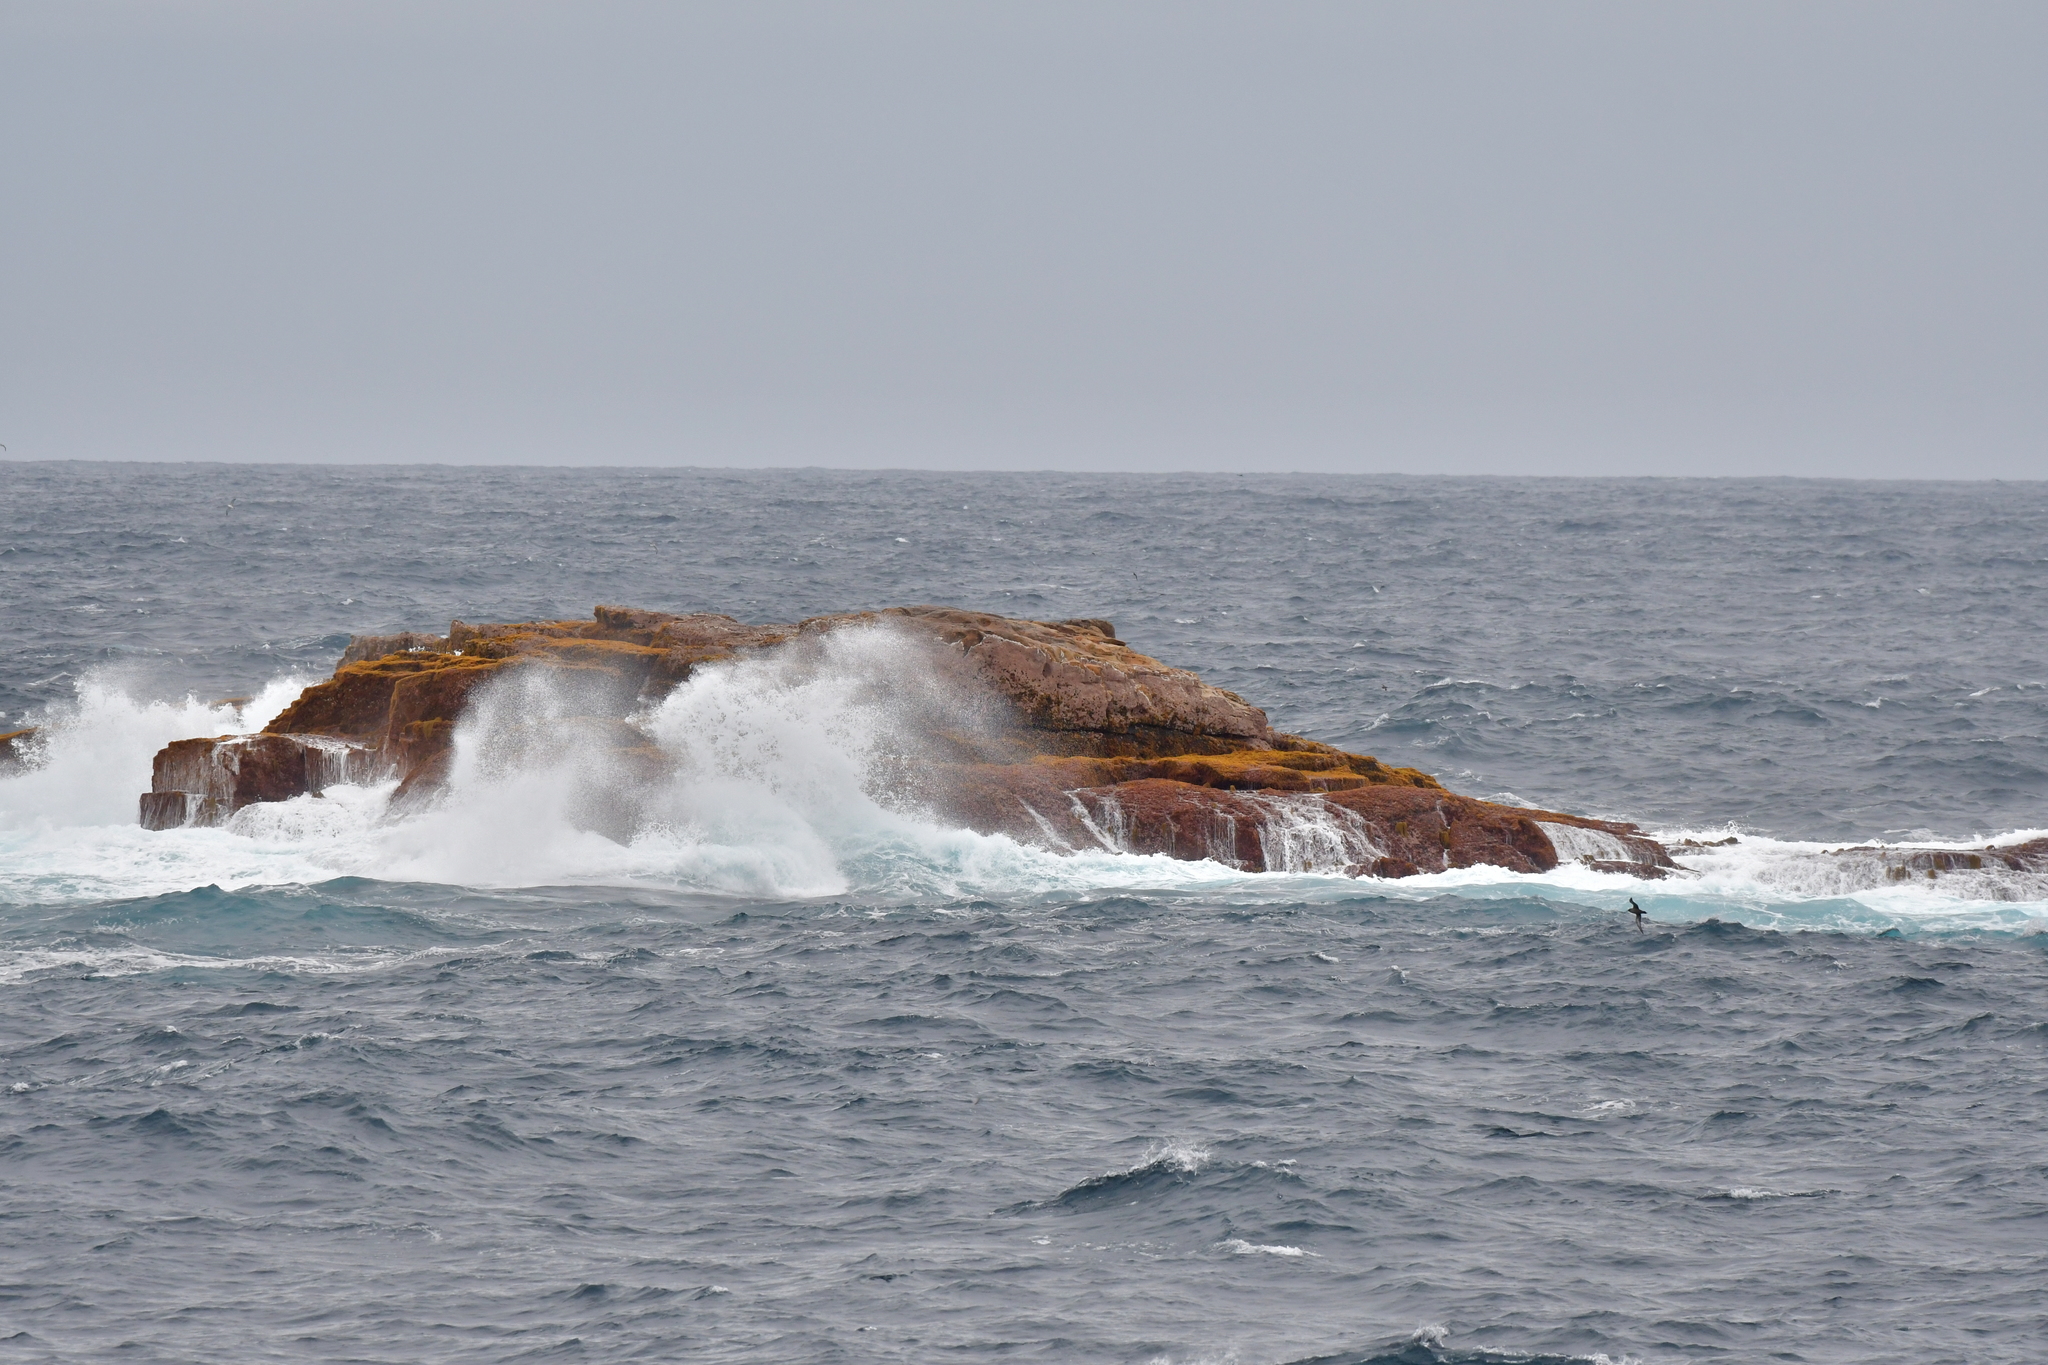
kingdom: Animalia
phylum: Chordata
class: Aves
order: Procellariiformes
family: Procellariidae
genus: Puffinus
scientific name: Puffinus griseus
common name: Sooty shearwater
